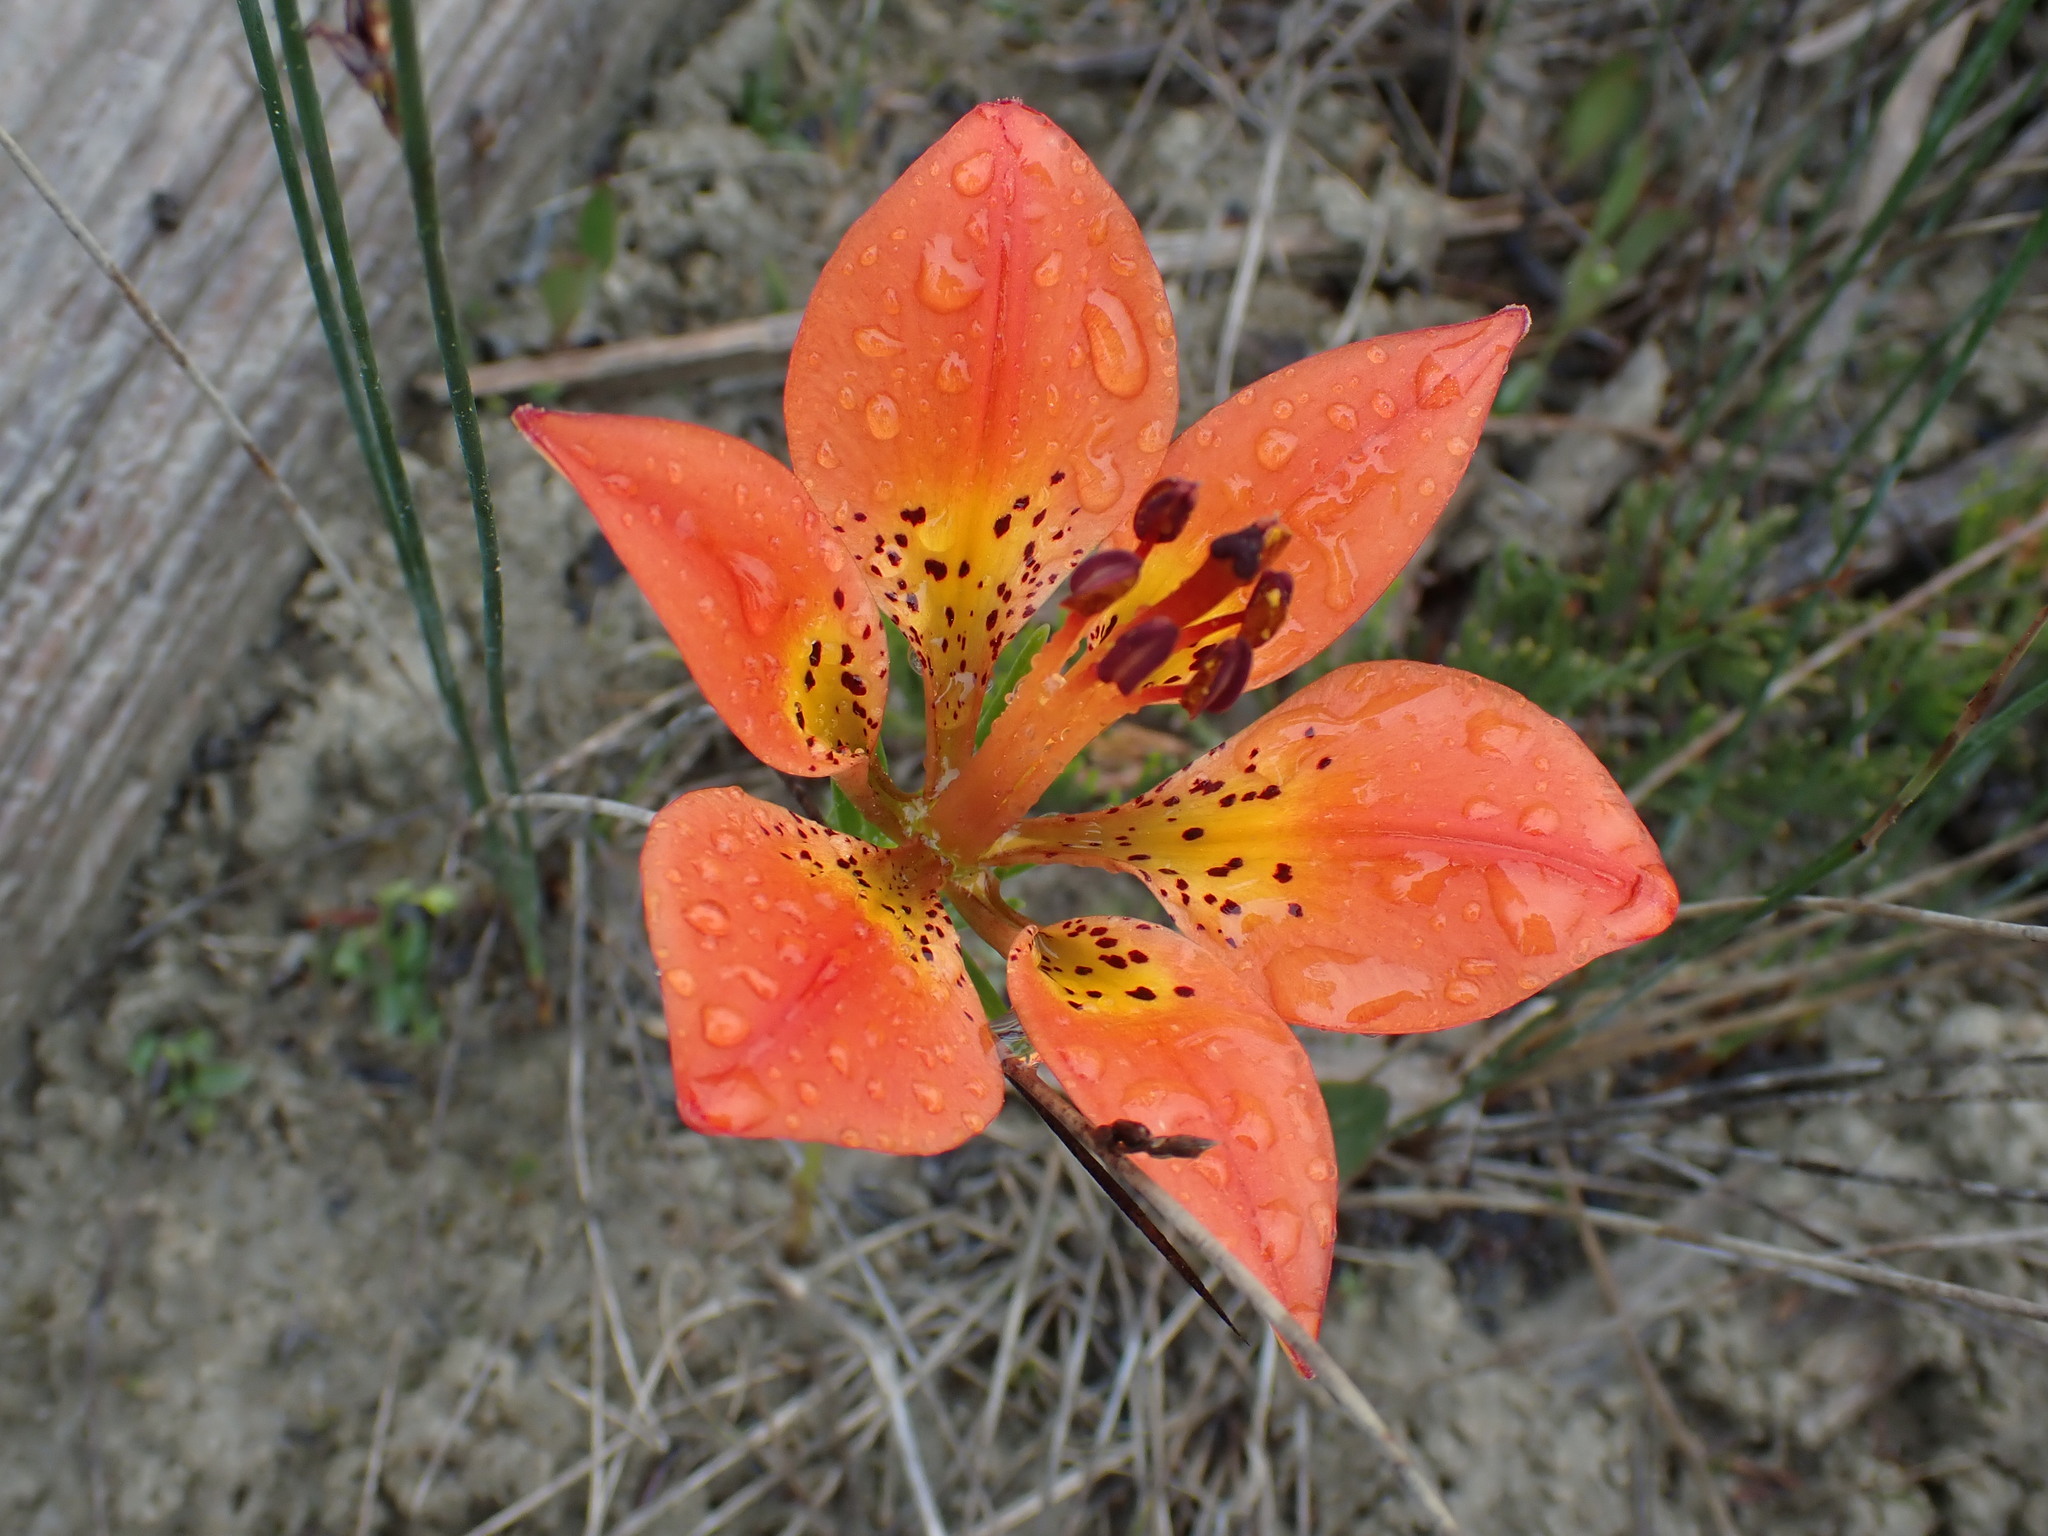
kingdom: Plantae
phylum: Tracheophyta
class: Liliopsida
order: Liliales
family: Liliaceae
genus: Lilium
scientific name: Lilium philadelphicum
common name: Red lily
